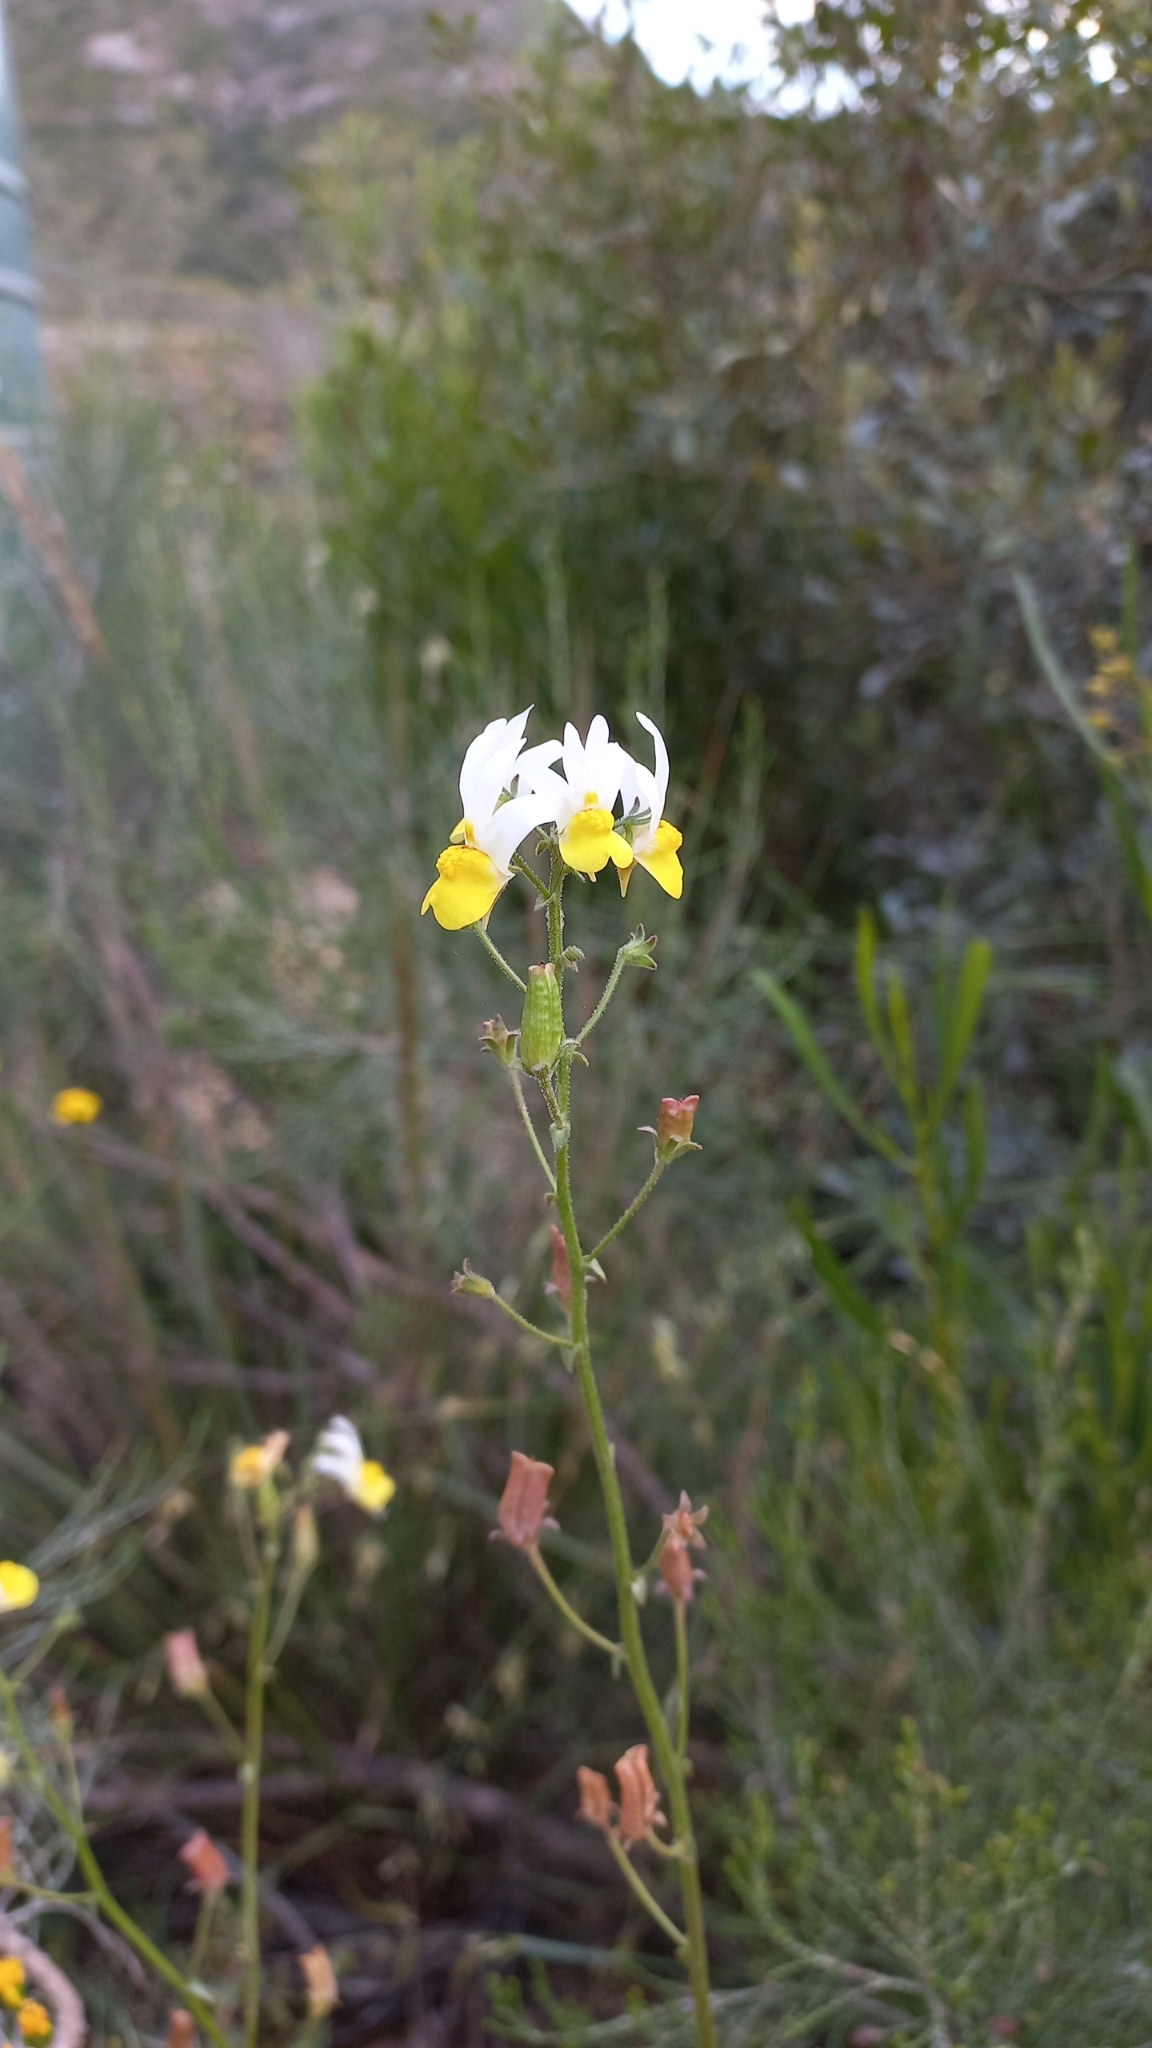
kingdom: Plantae
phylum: Tracheophyta
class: Magnoliopsida
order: Lamiales
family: Scrophulariaceae
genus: Nemesia
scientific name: Nemesia anisocarpa
